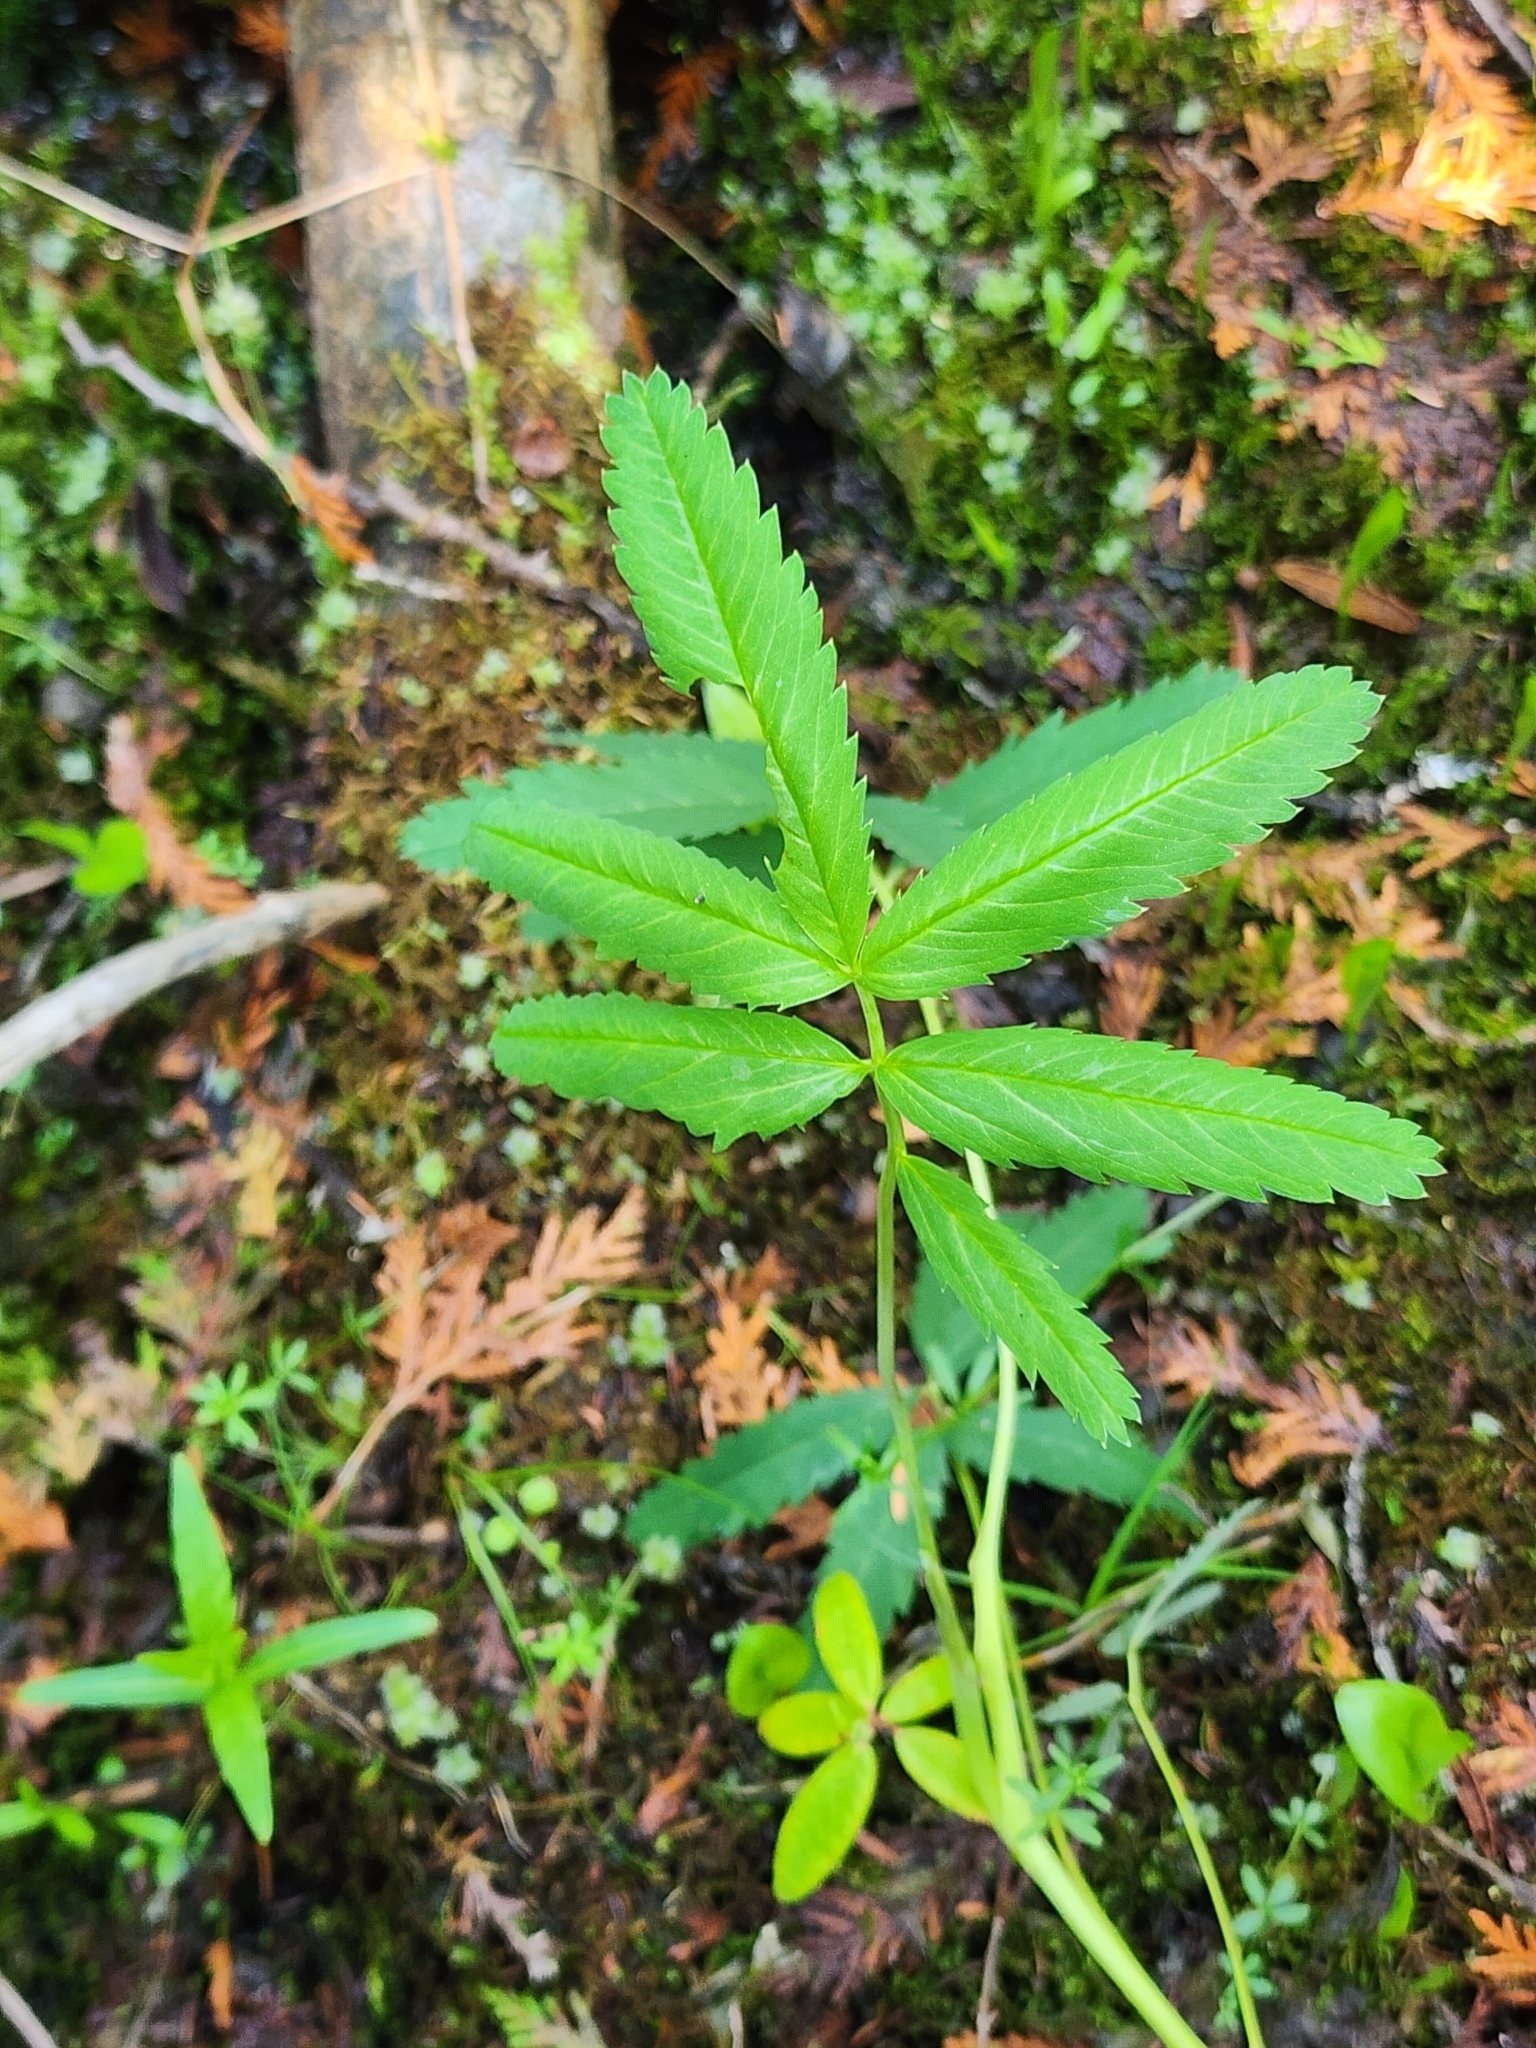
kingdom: Plantae
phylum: Tracheophyta
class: Magnoliopsida
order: Rosales
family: Rosaceae
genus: Comarum
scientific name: Comarum palustre
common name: Marsh cinquefoil
